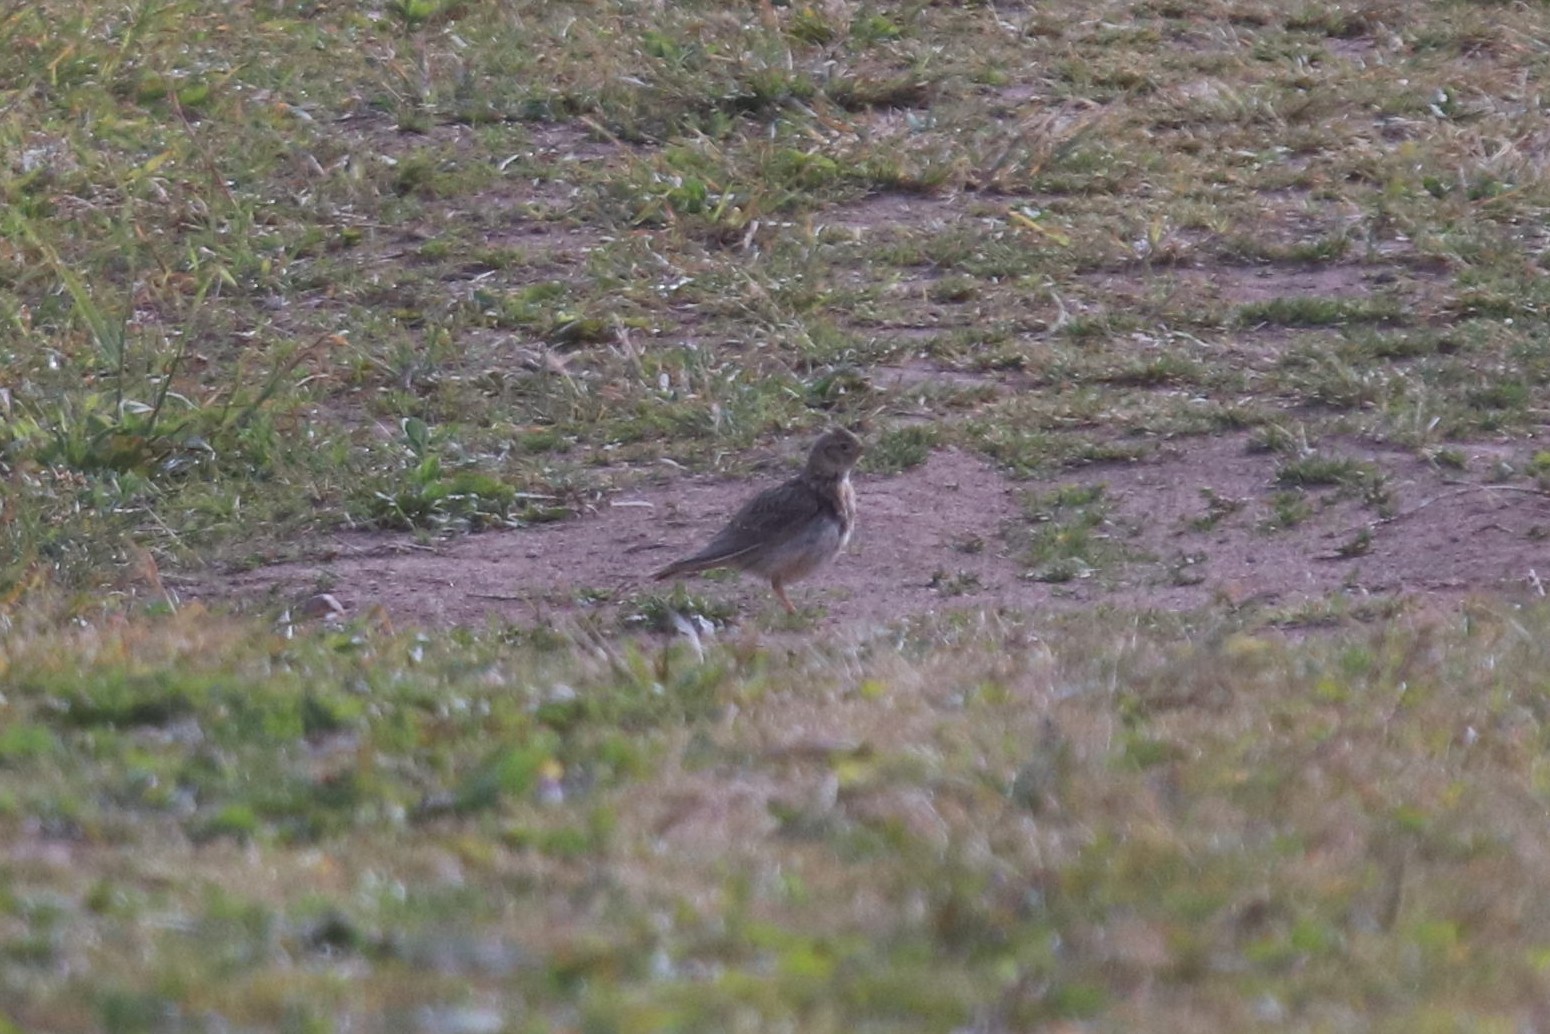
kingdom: Animalia
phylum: Chordata
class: Aves
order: Passeriformes
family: Alaudidae
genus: Alauda
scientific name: Alauda arvensis
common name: Eurasian skylark
